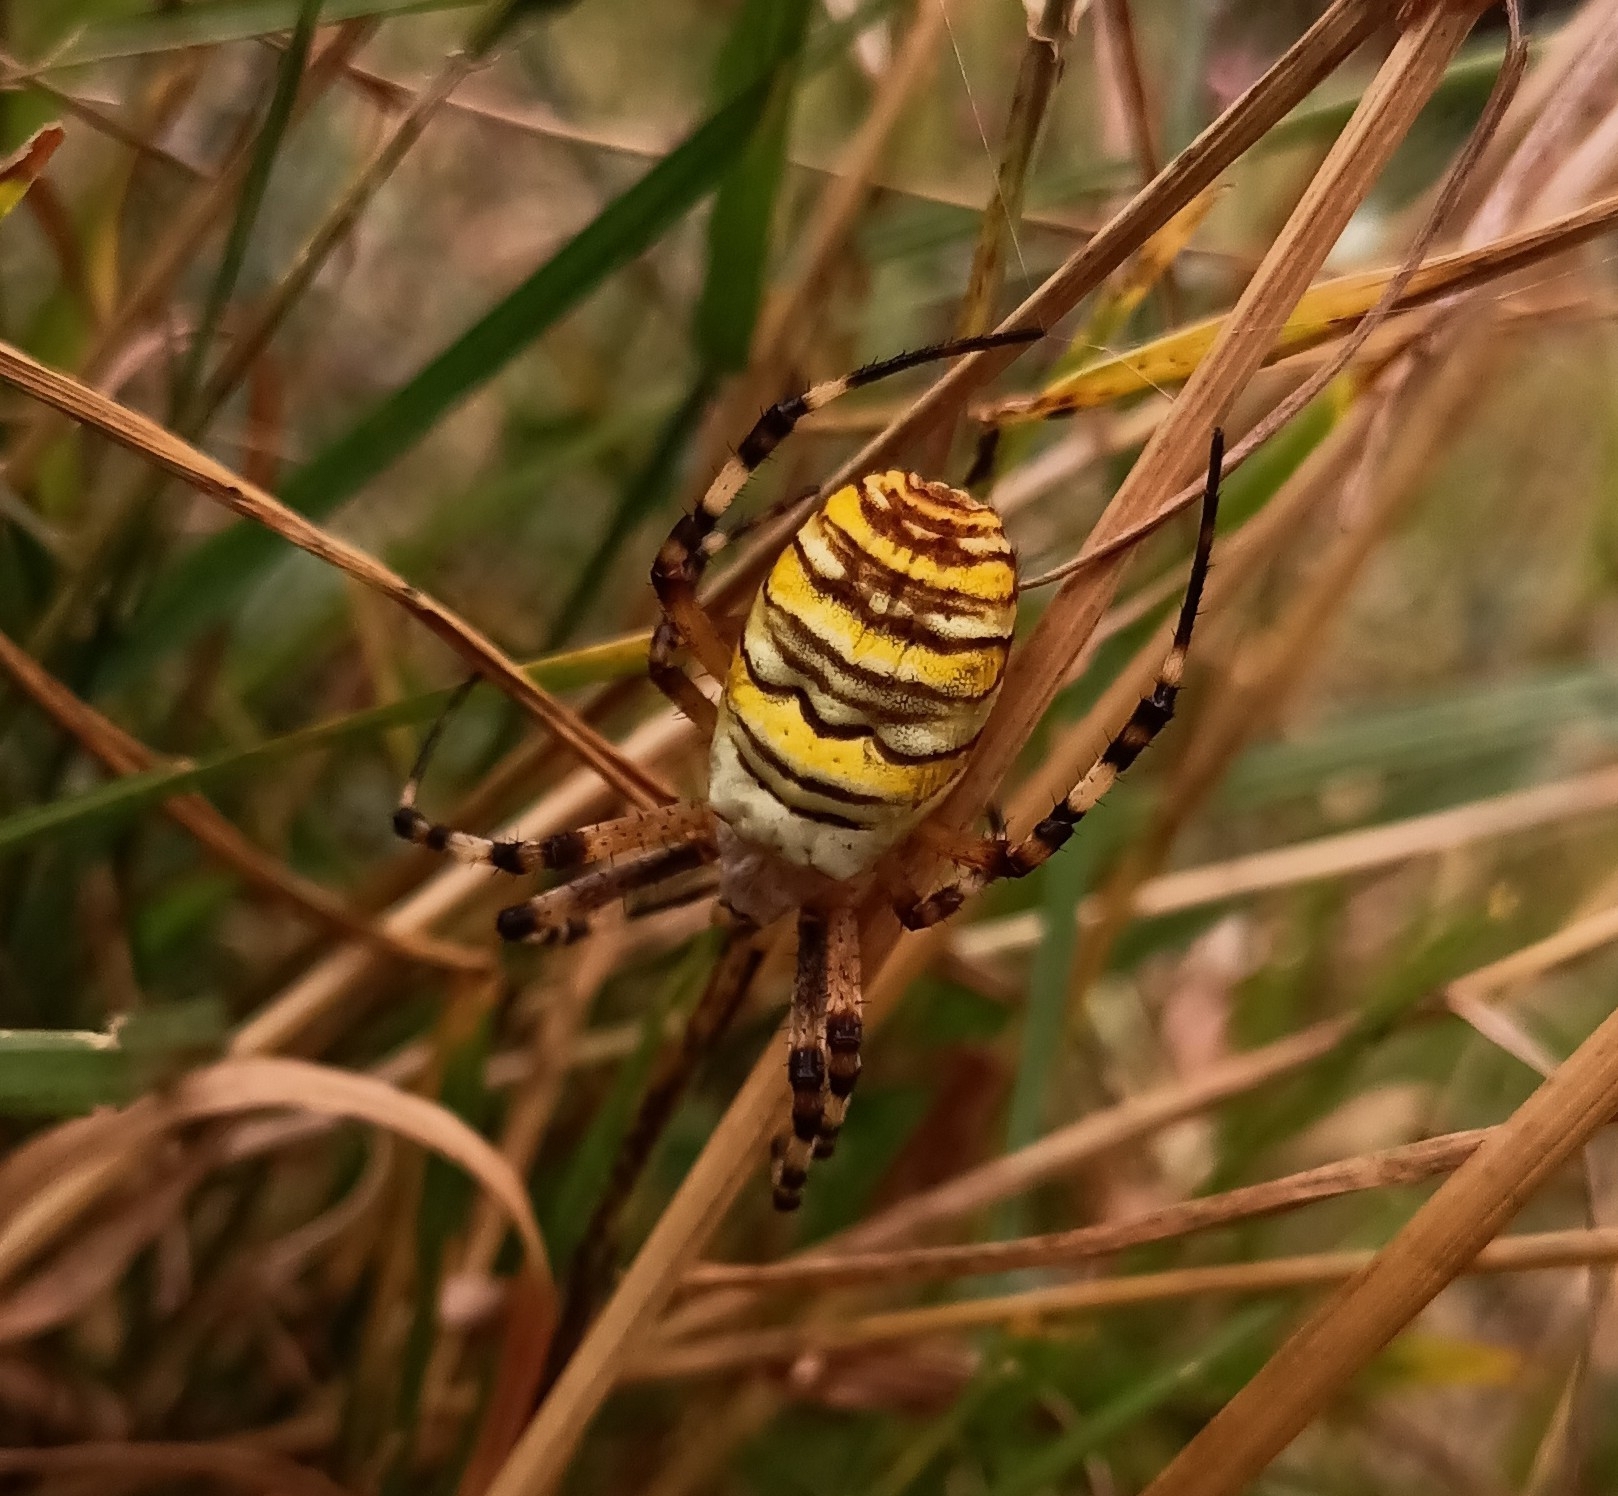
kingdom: Animalia
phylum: Arthropoda
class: Arachnida
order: Araneae
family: Araneidae
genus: Argiope
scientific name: Argiope bruennichi
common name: Wasp spider
